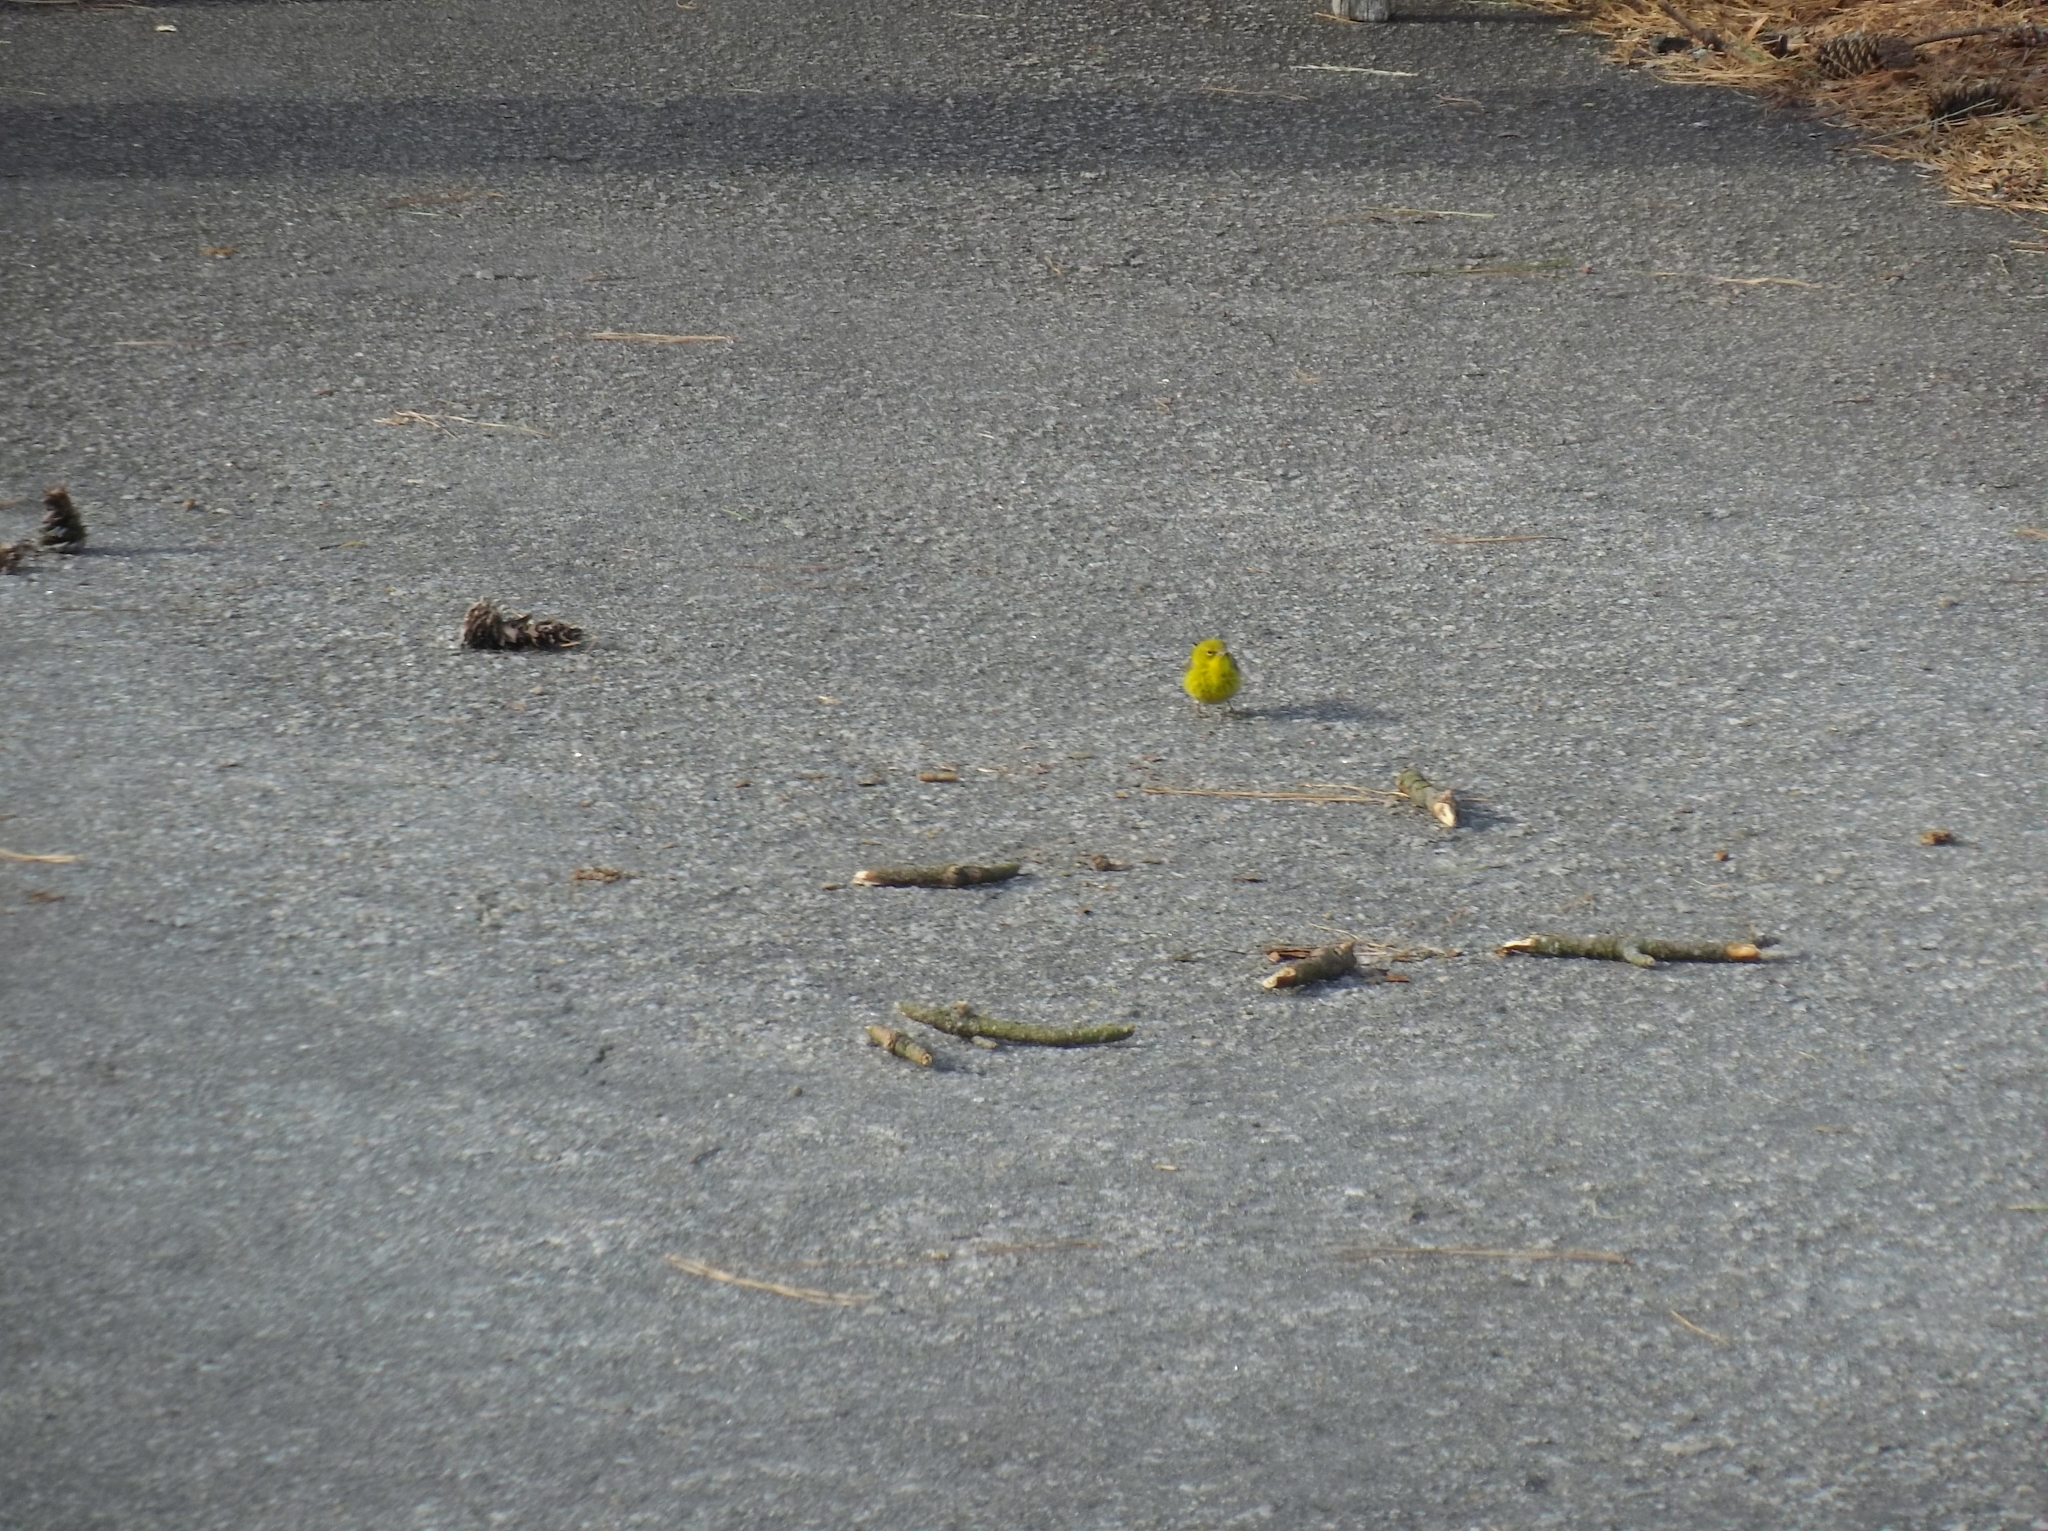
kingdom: Animalia
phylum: Chordata
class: Aves
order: Passeriformes
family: Parulidae
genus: Setophaga
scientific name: Setophaga pinus
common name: Pine warbler
